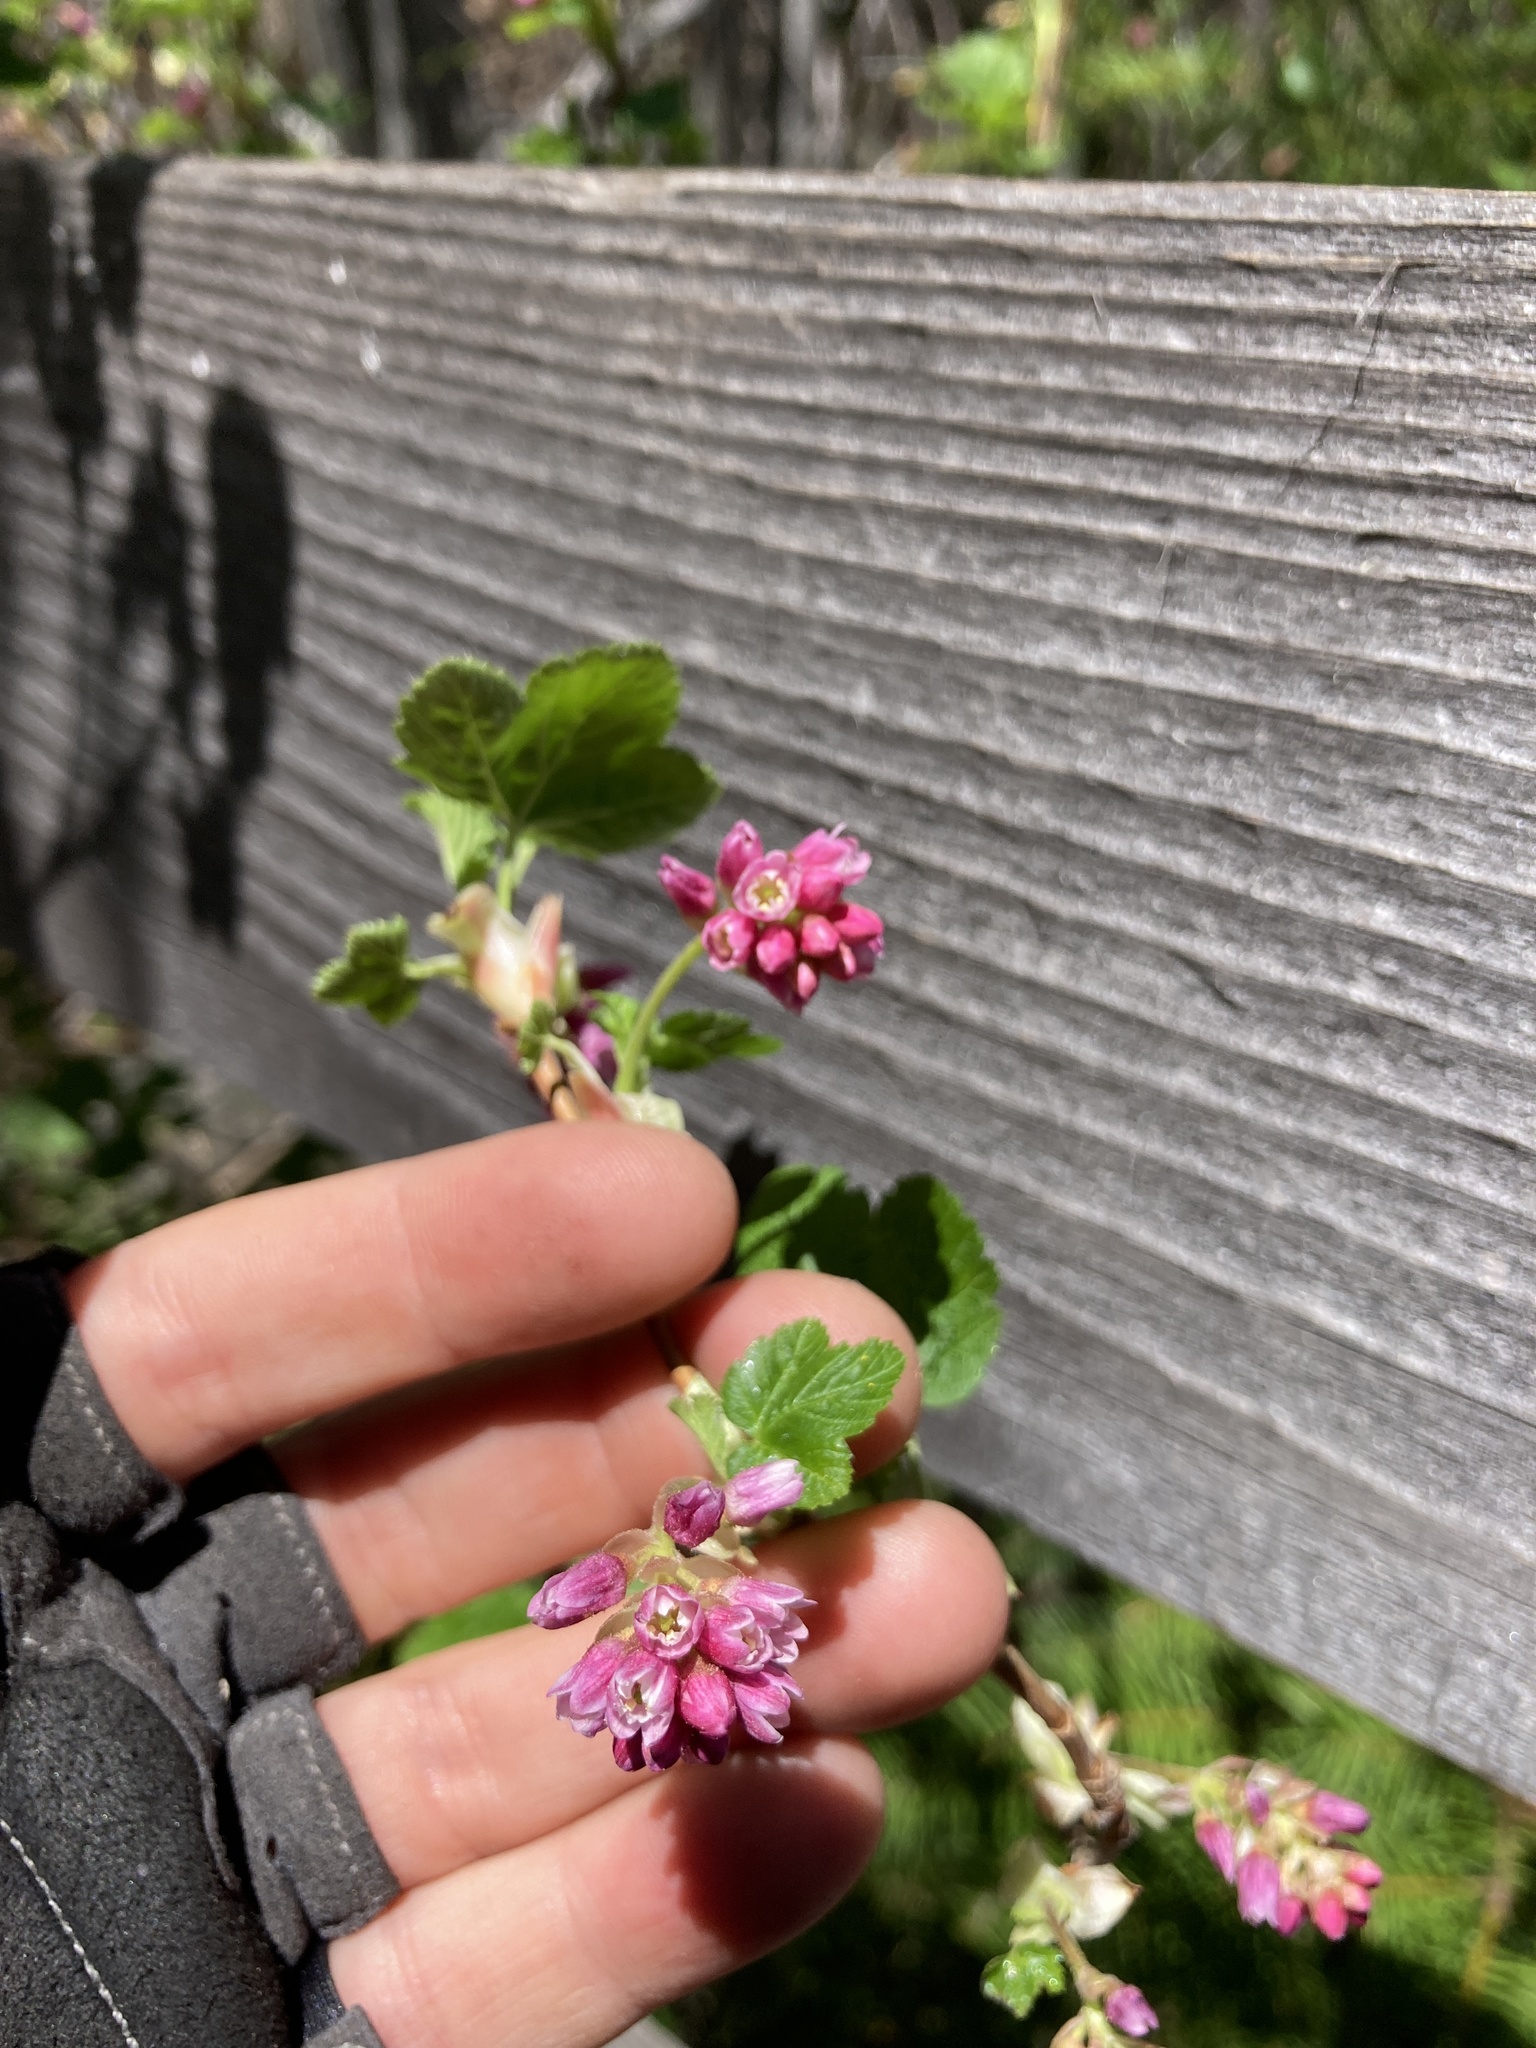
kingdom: Plantae
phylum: Tracheophyta
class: Magnoliopsida
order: Saxifragales
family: Grossulariaceae
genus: Ribes
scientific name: Ribes nevadense
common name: Mountain pink currant
